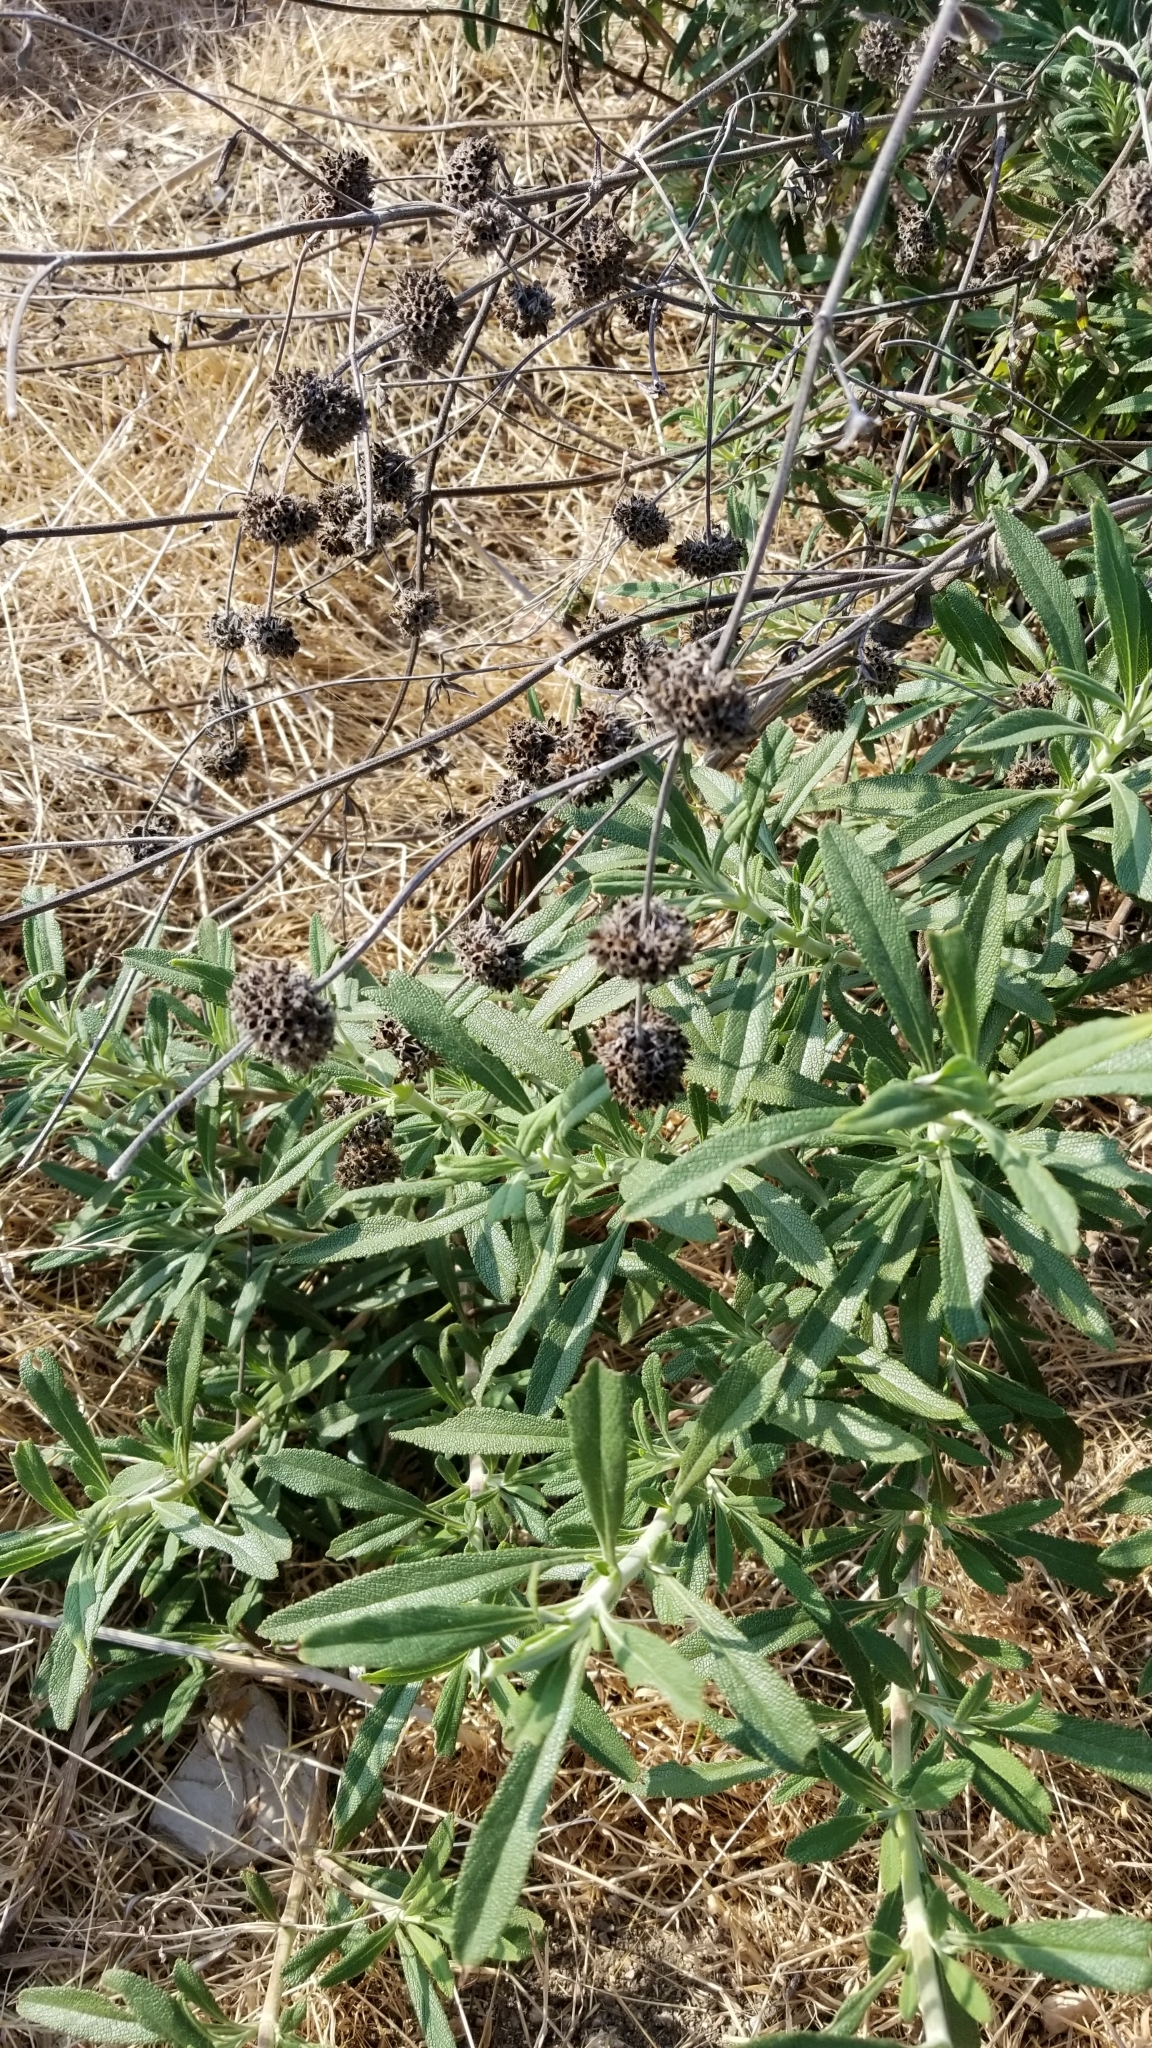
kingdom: Plantae
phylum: Tracheophyta
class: Magnoliopsida
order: Lamiales
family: Lamiaceae
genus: Salvia
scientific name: Salvia mellifera
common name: Black sage
